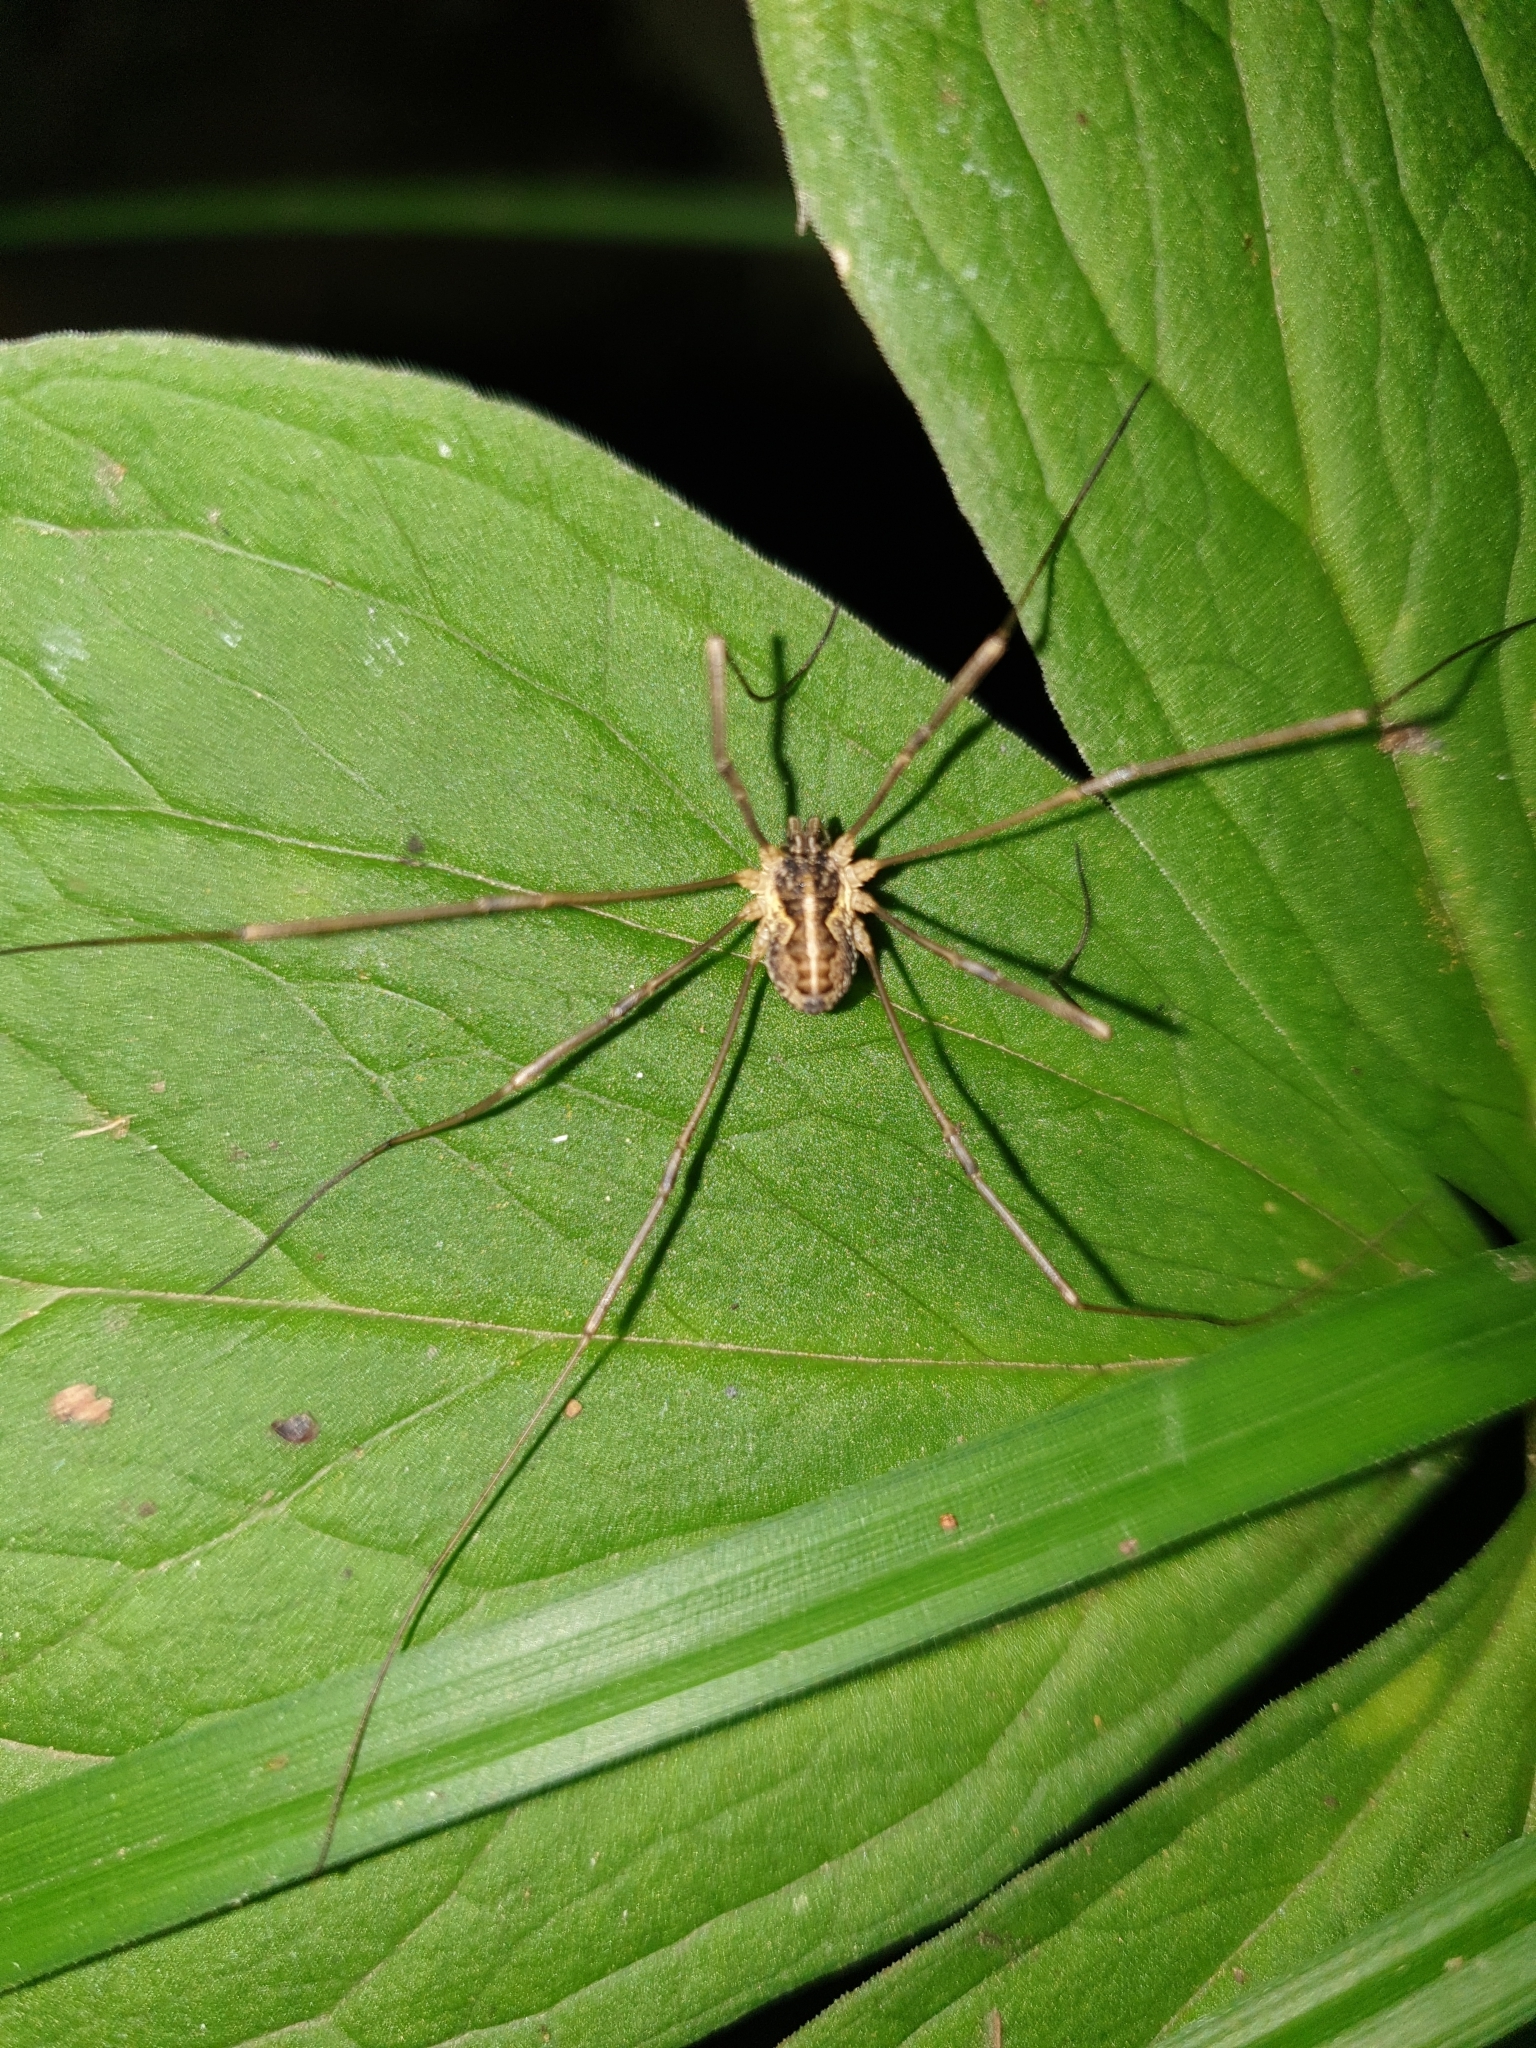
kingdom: Animalia
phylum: Arthropoda
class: Arachnida
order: Opiliones
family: Phalangiidae
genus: Mitopus
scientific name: Mitopus morio
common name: Saddleback harvestman
